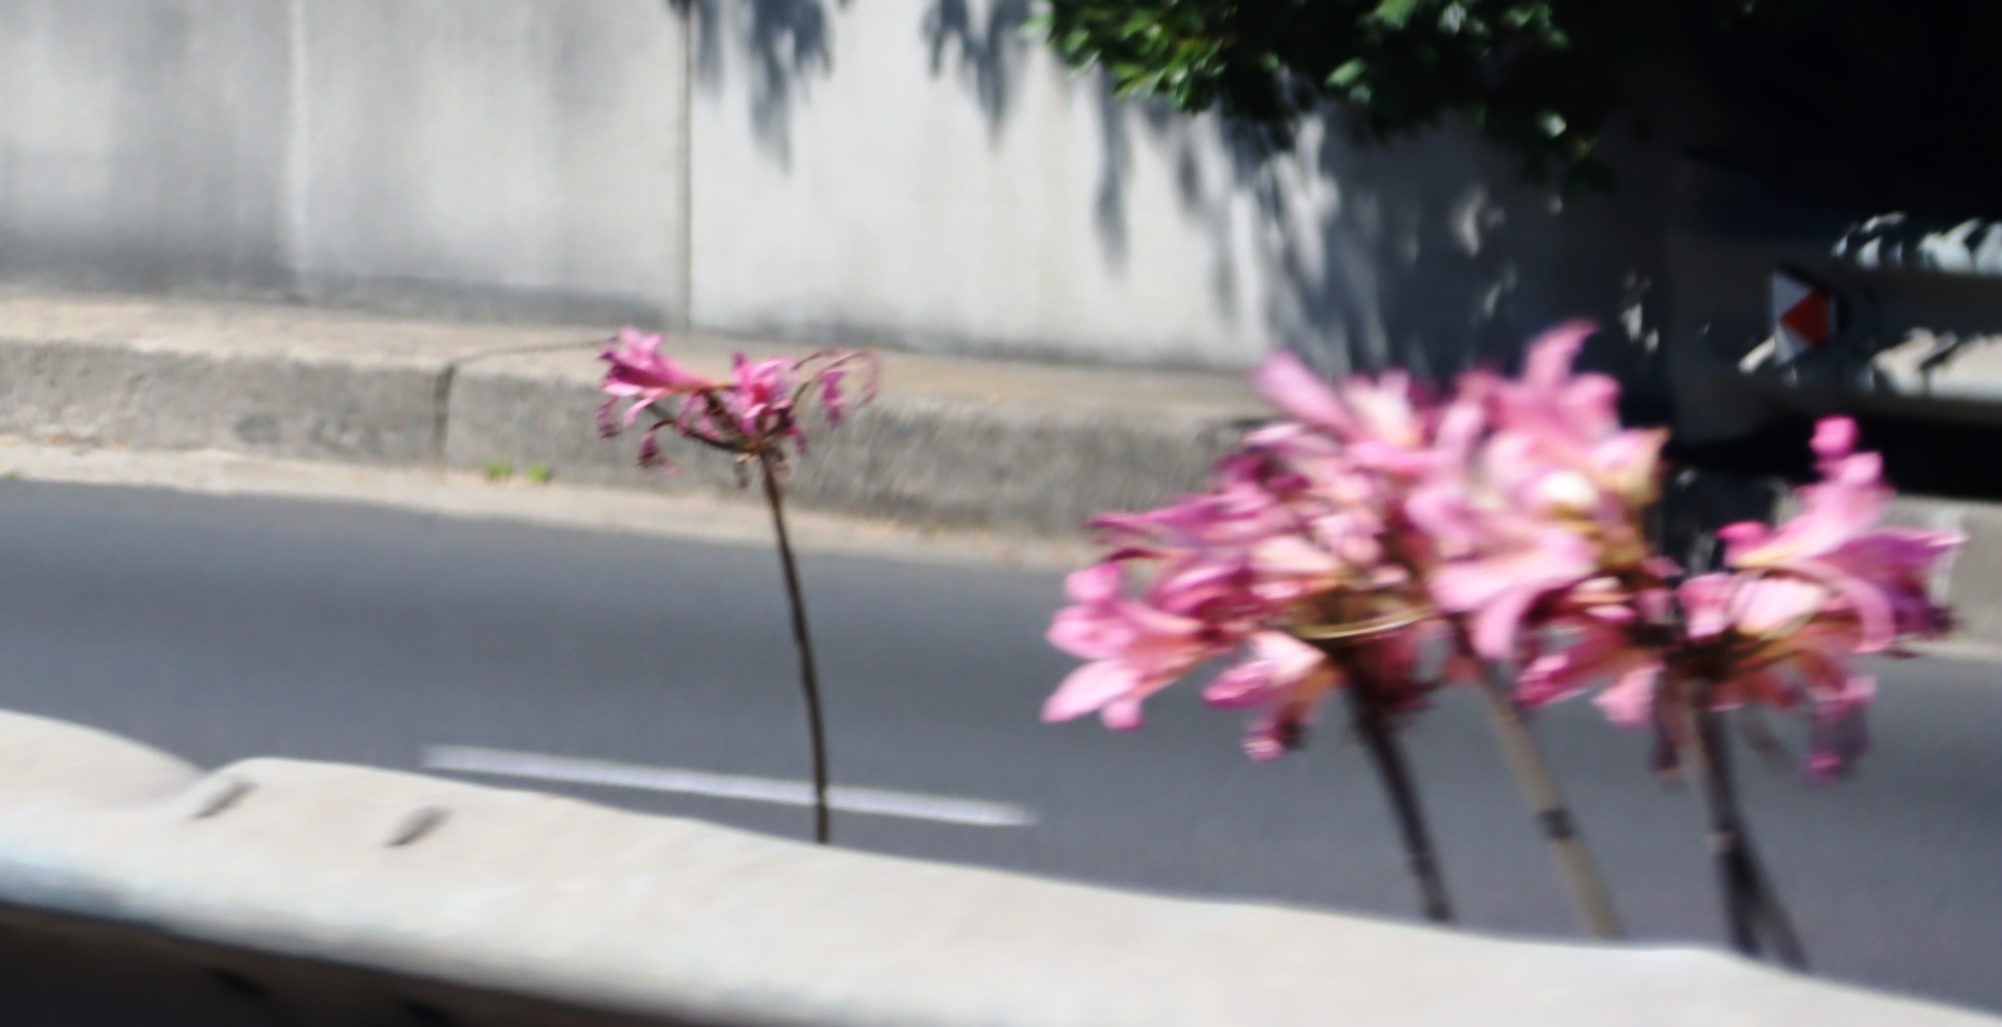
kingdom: Plantae
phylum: Tracheophyta
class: Liliopsida
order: Asparagales
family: Amaryllidaceae
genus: Amaryllis
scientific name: Amaryllis belladonna
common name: Jersey lily
